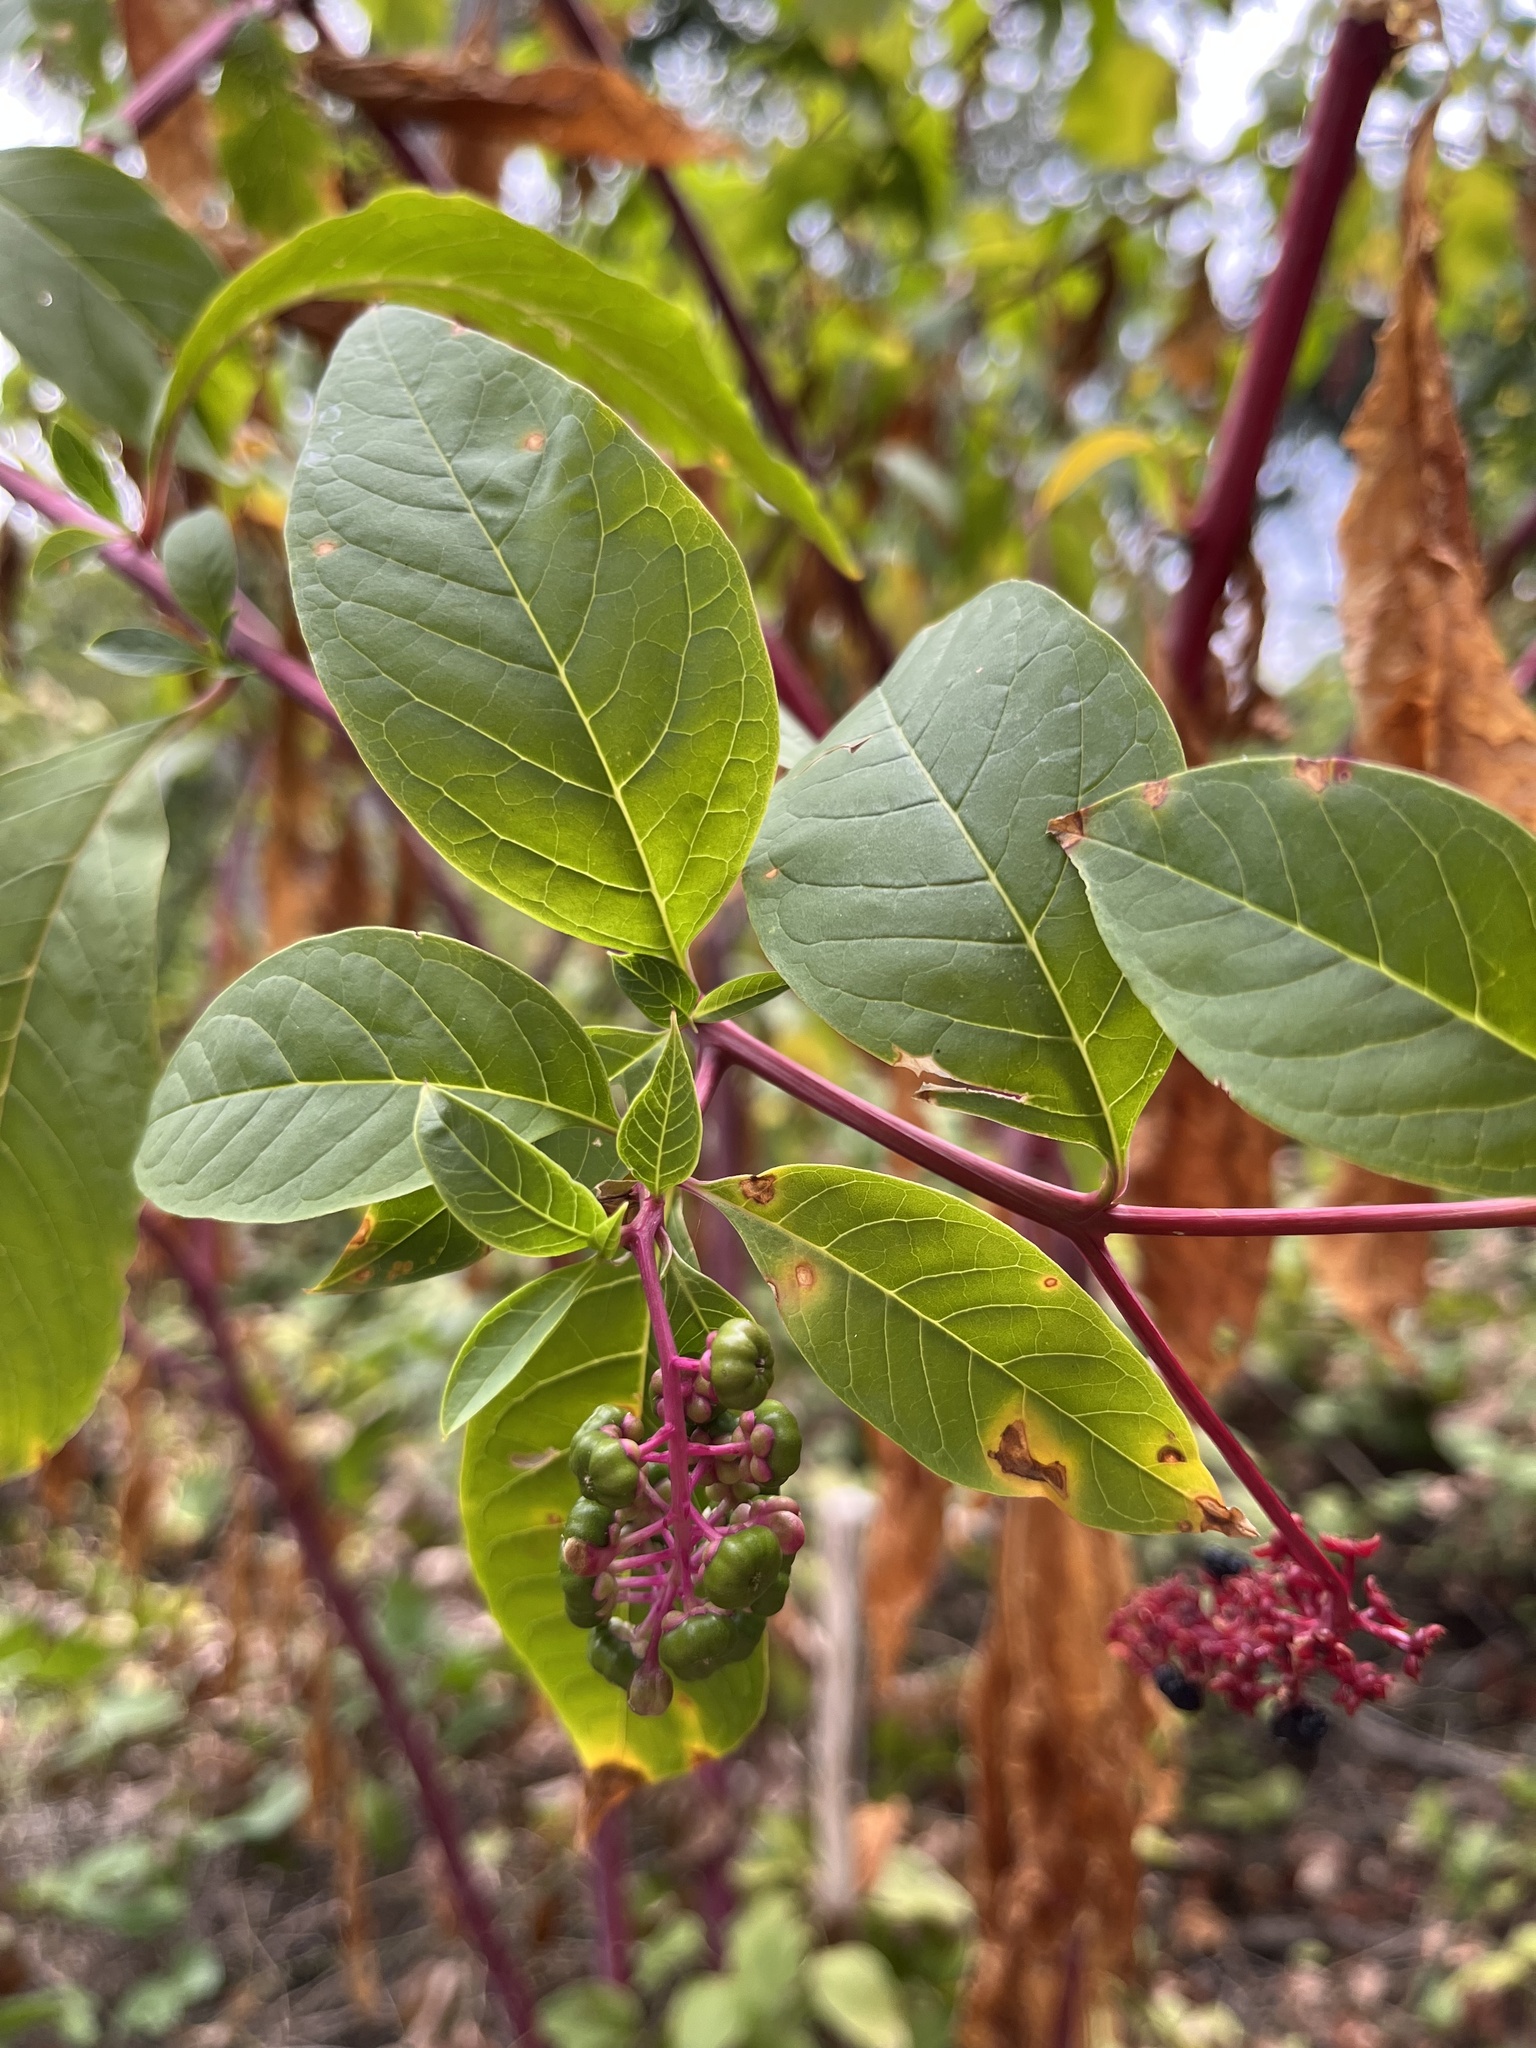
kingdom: Plantae
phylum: Tracheophyta
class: Magnoliopsida
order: Caryophyllales
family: Phytolaccaceae
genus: Phytolacca
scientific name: Phytolacca americana
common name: American pokeweed
